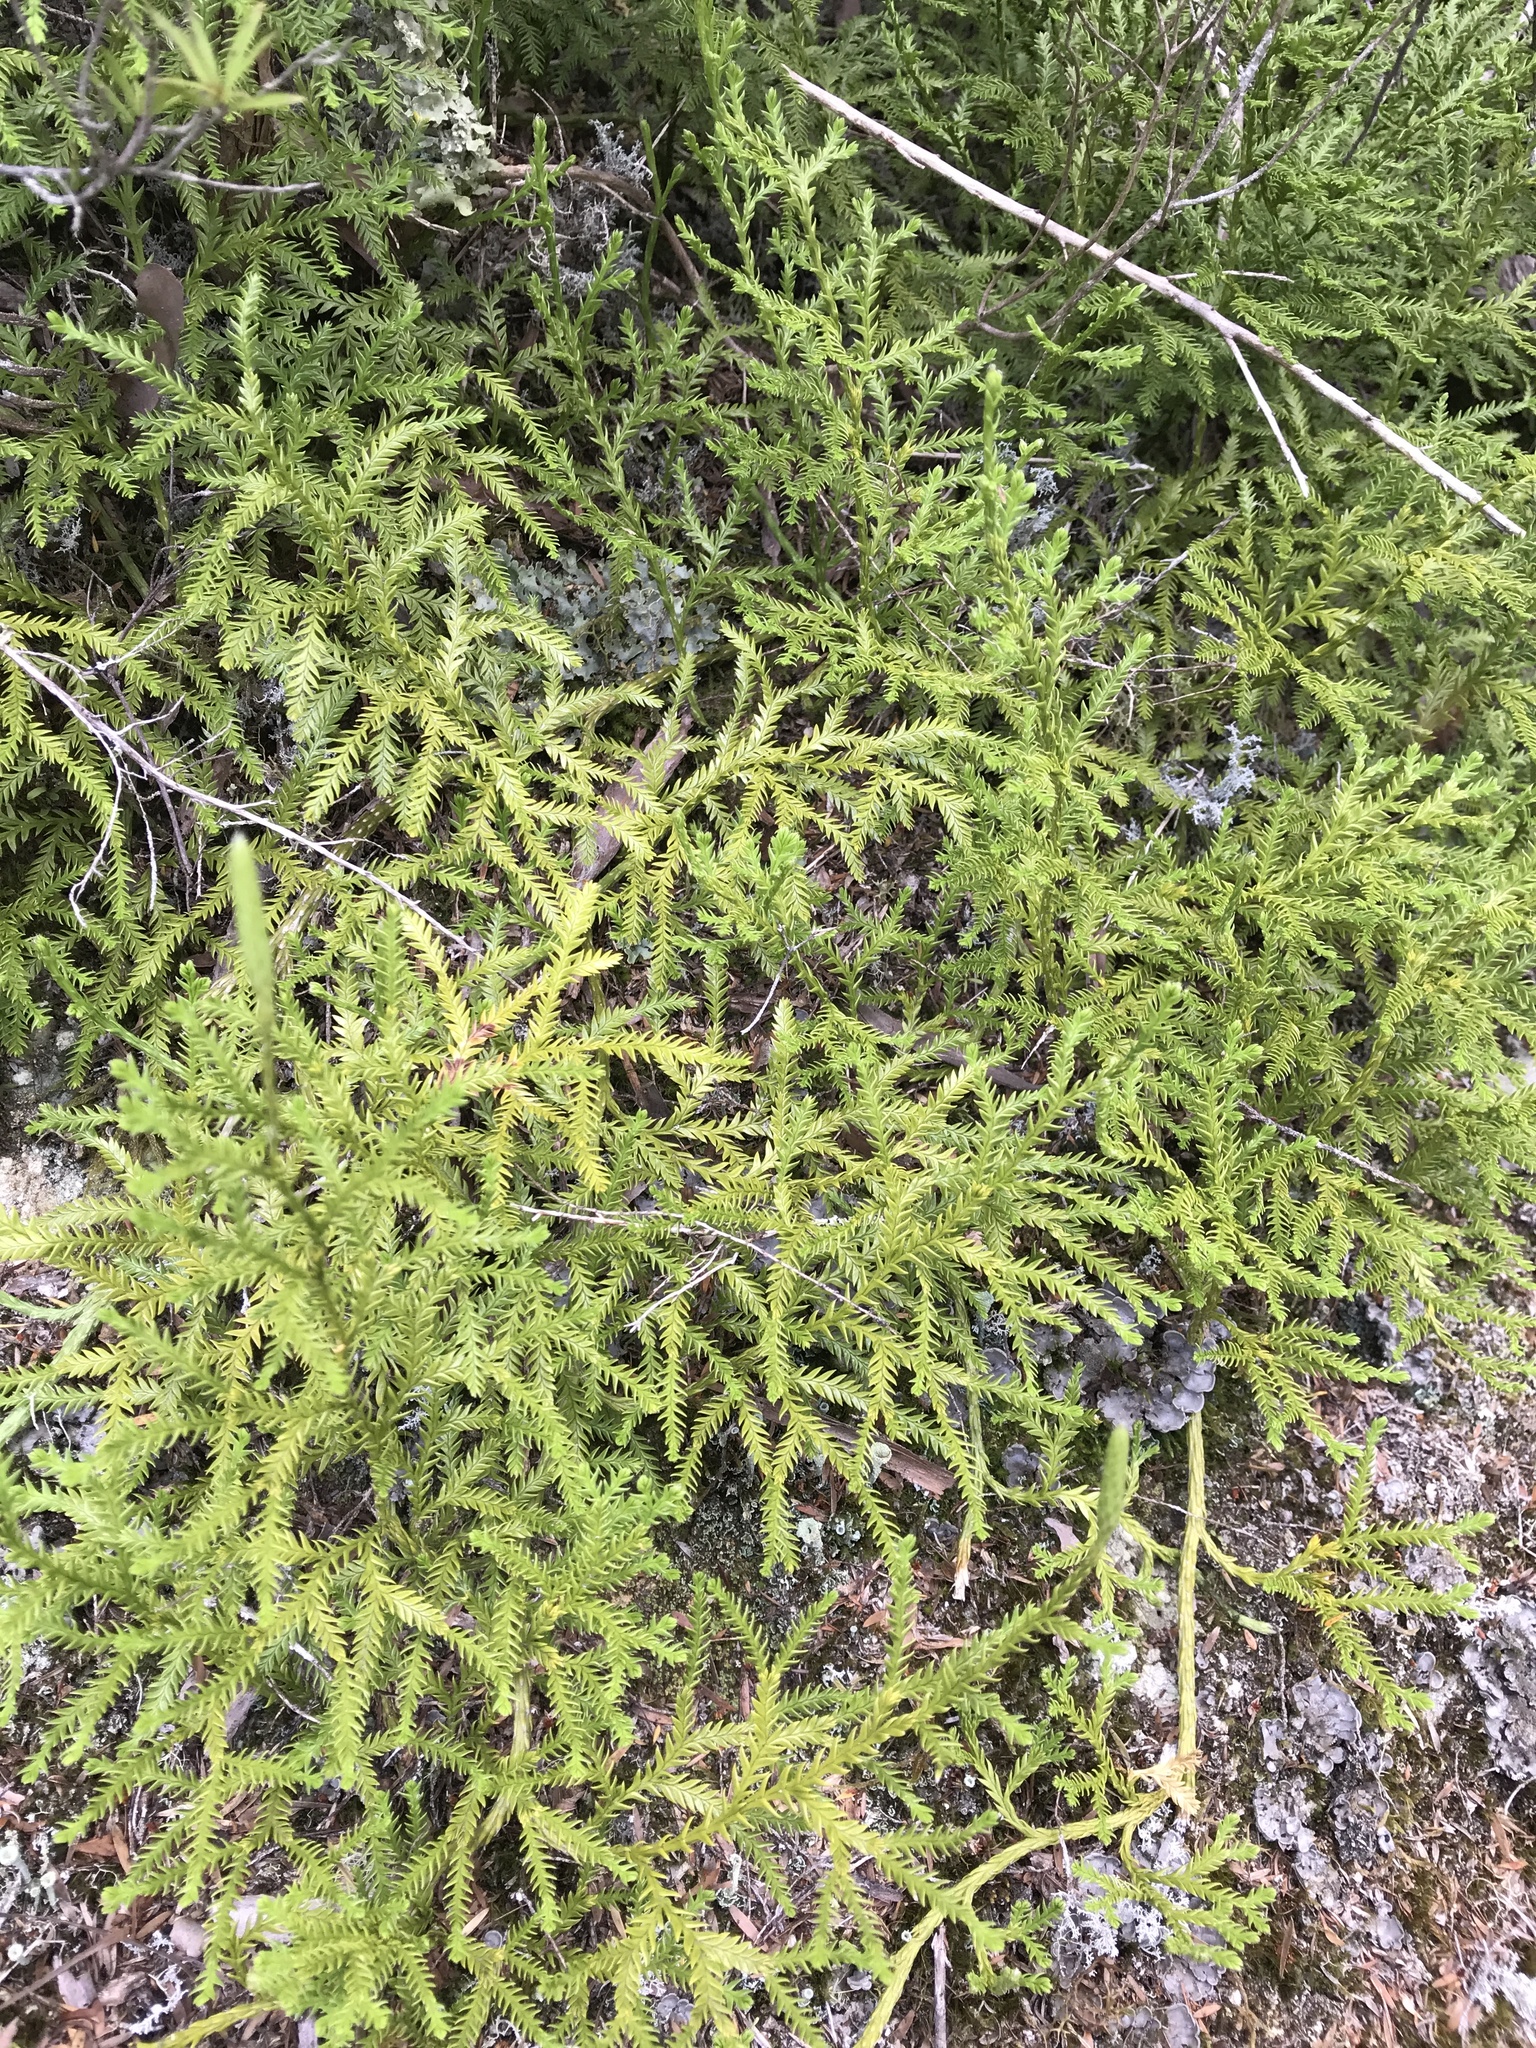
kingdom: Plantae
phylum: Tracheophyta
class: Lycopodiopsida
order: Lycopodiales
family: Lycopodiaceae
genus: Diphasium
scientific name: Diphasium scariosum
